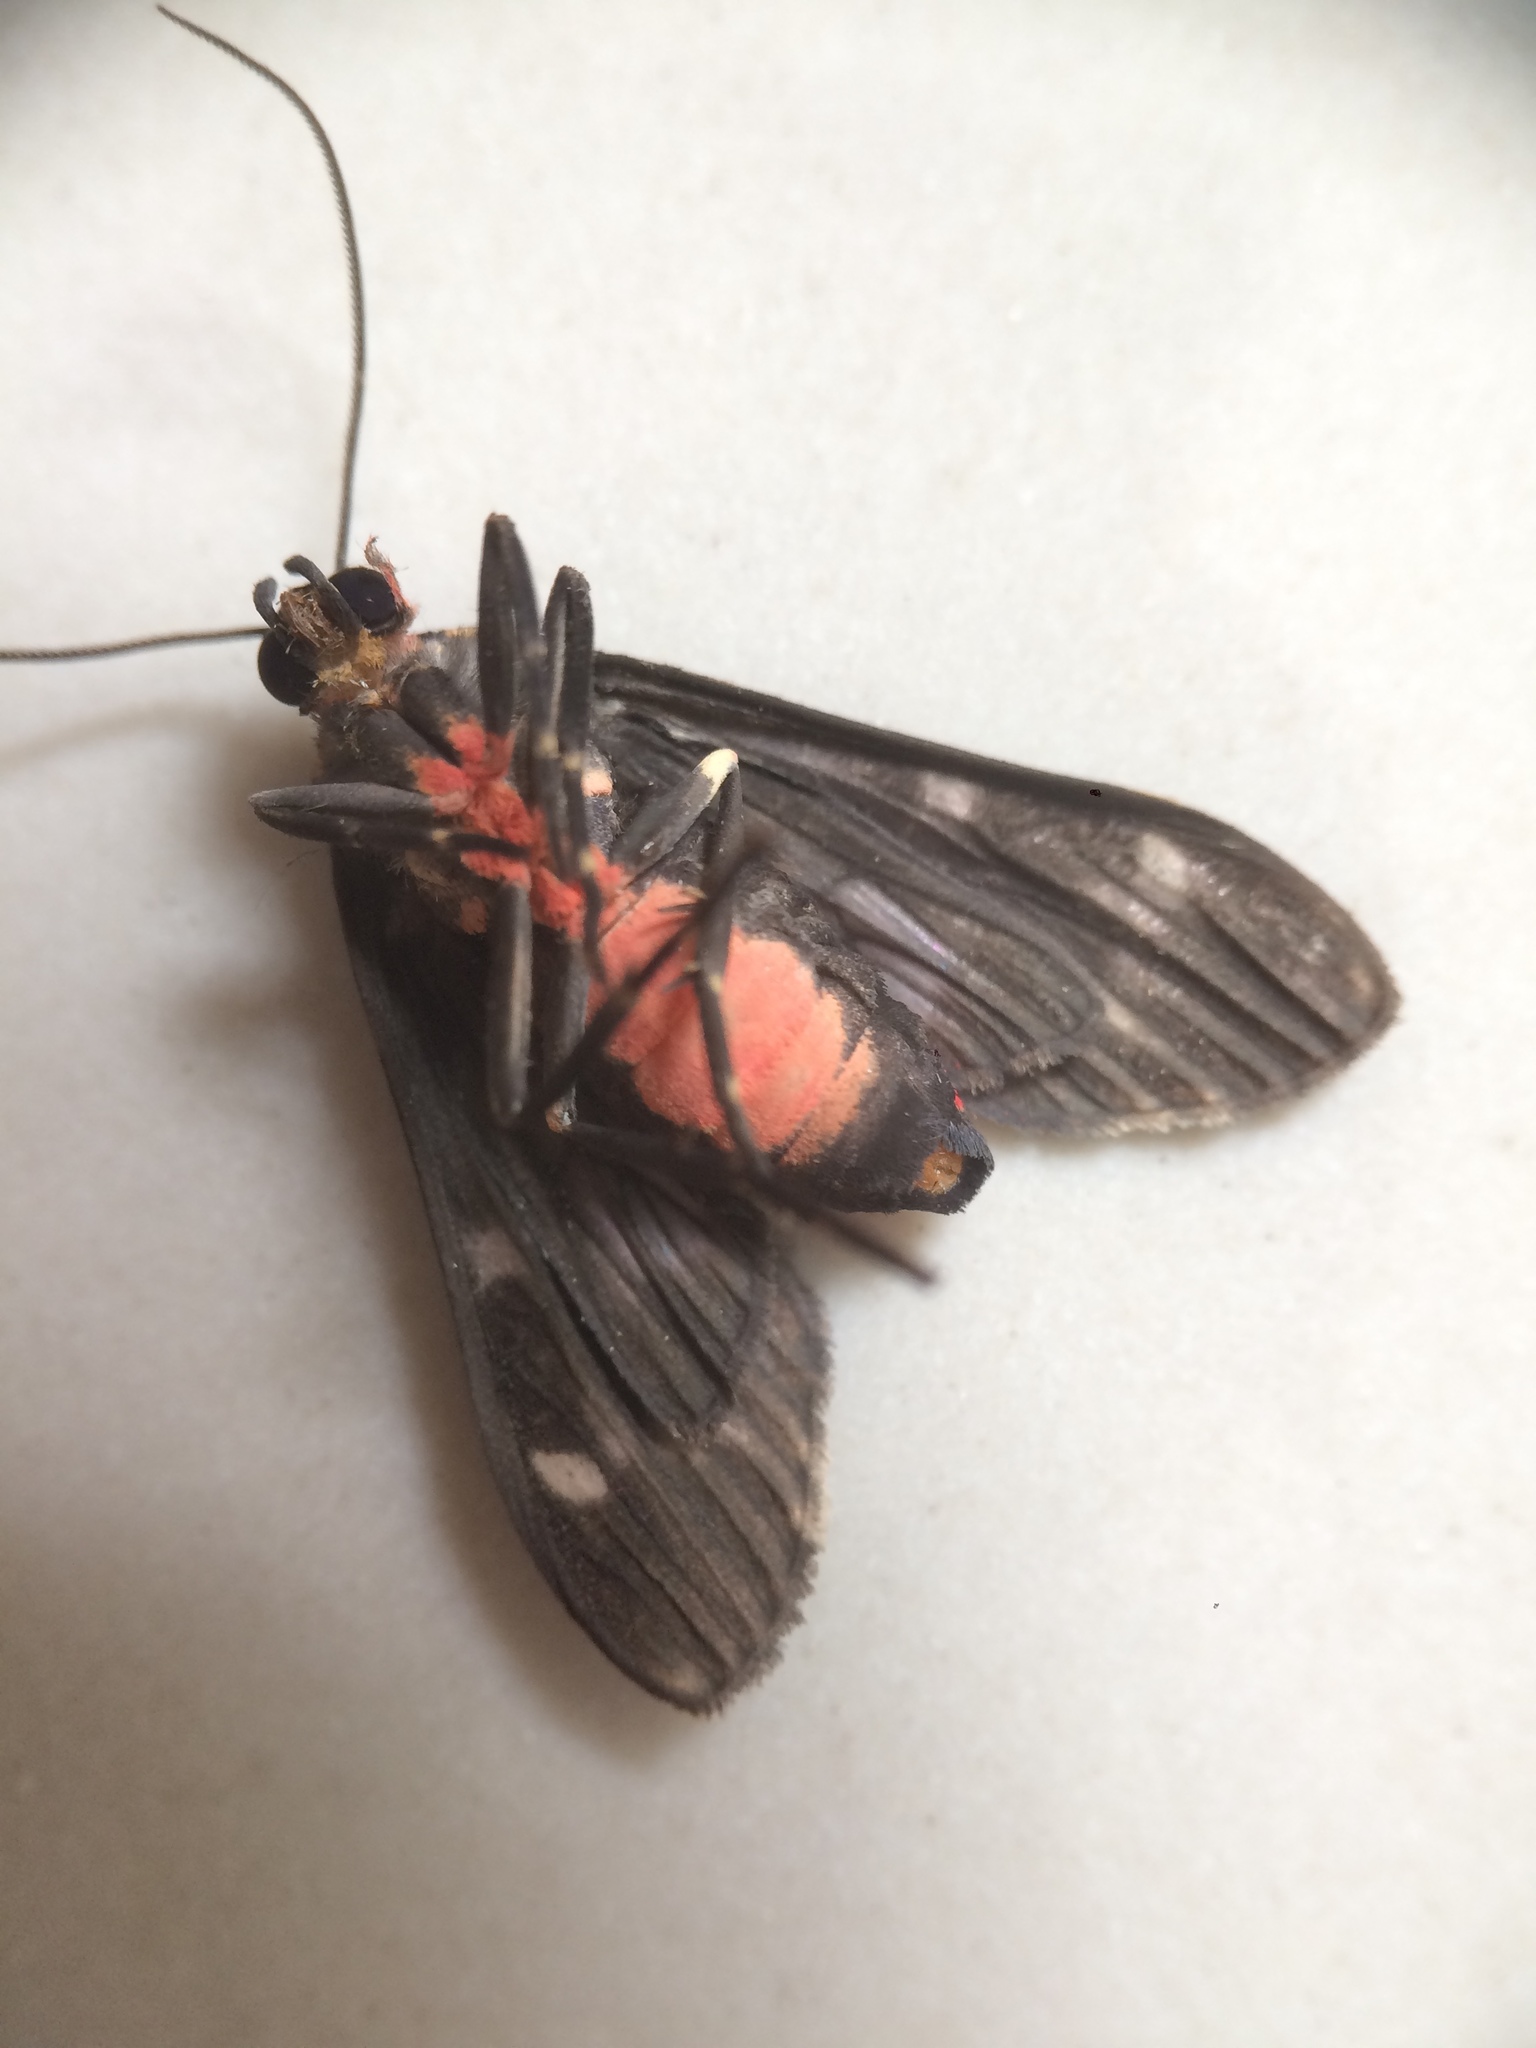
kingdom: Animalia
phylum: Arthropoda
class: Insecta
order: Lepidoptera
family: Erebidae
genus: Eucereon
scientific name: Eucereon sylvius
